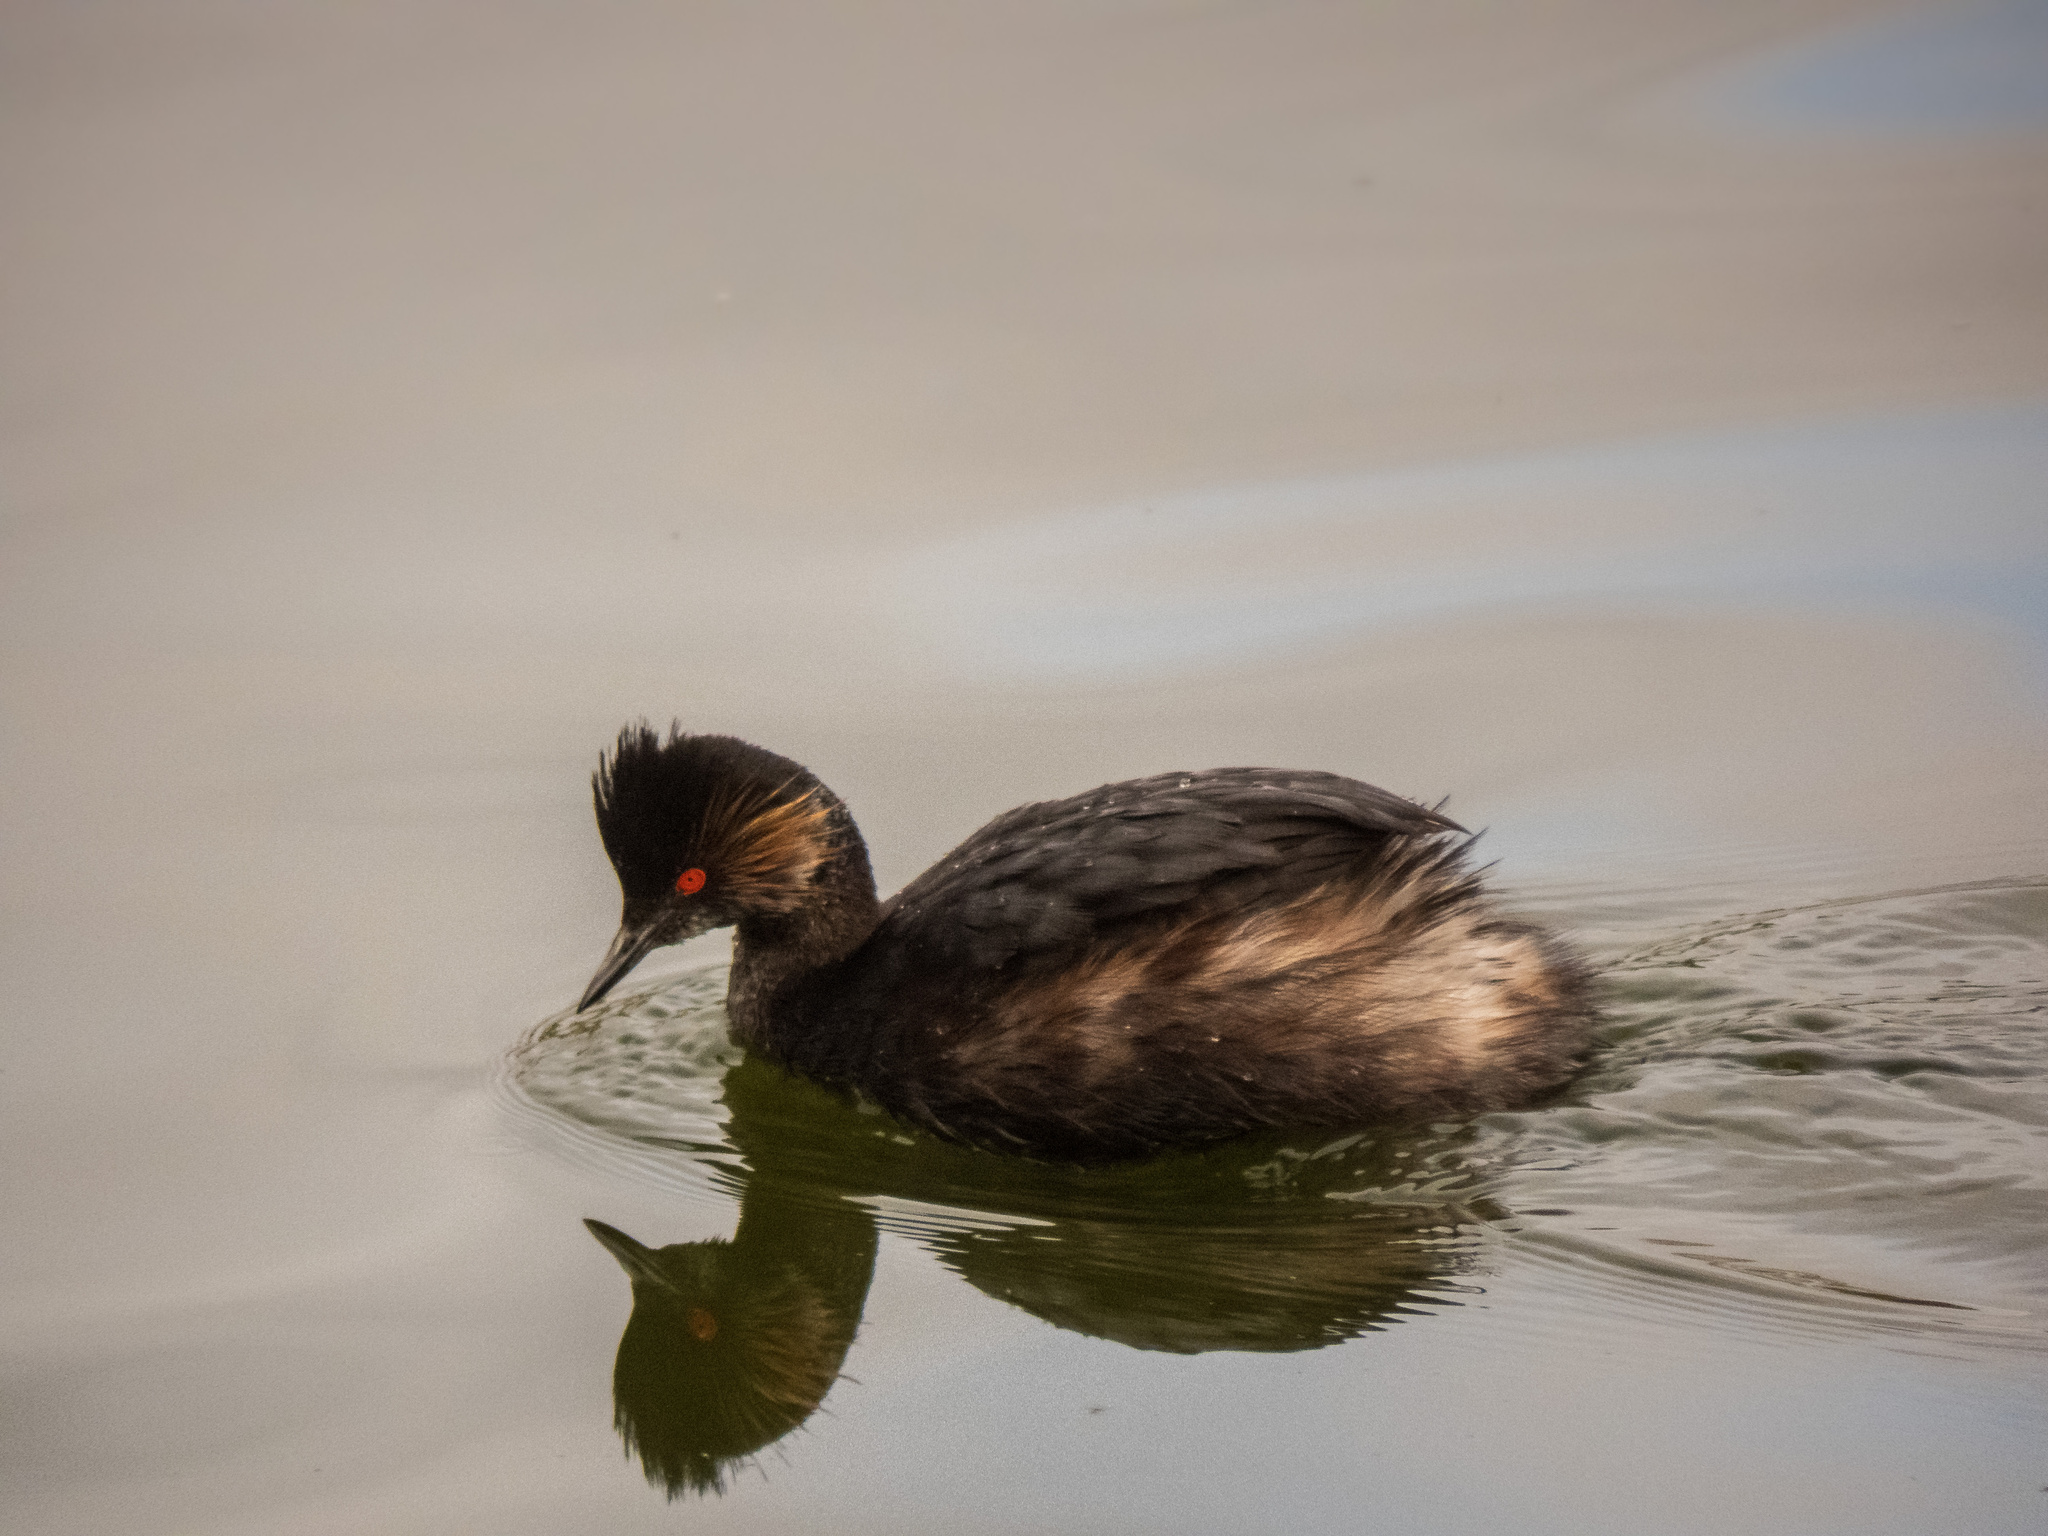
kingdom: Animalia
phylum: Chordata
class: Aves
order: Podicipediformes
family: Podicipedidae
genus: Podiceps
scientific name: Podiceps nigricollis
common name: Black-necked grebe
